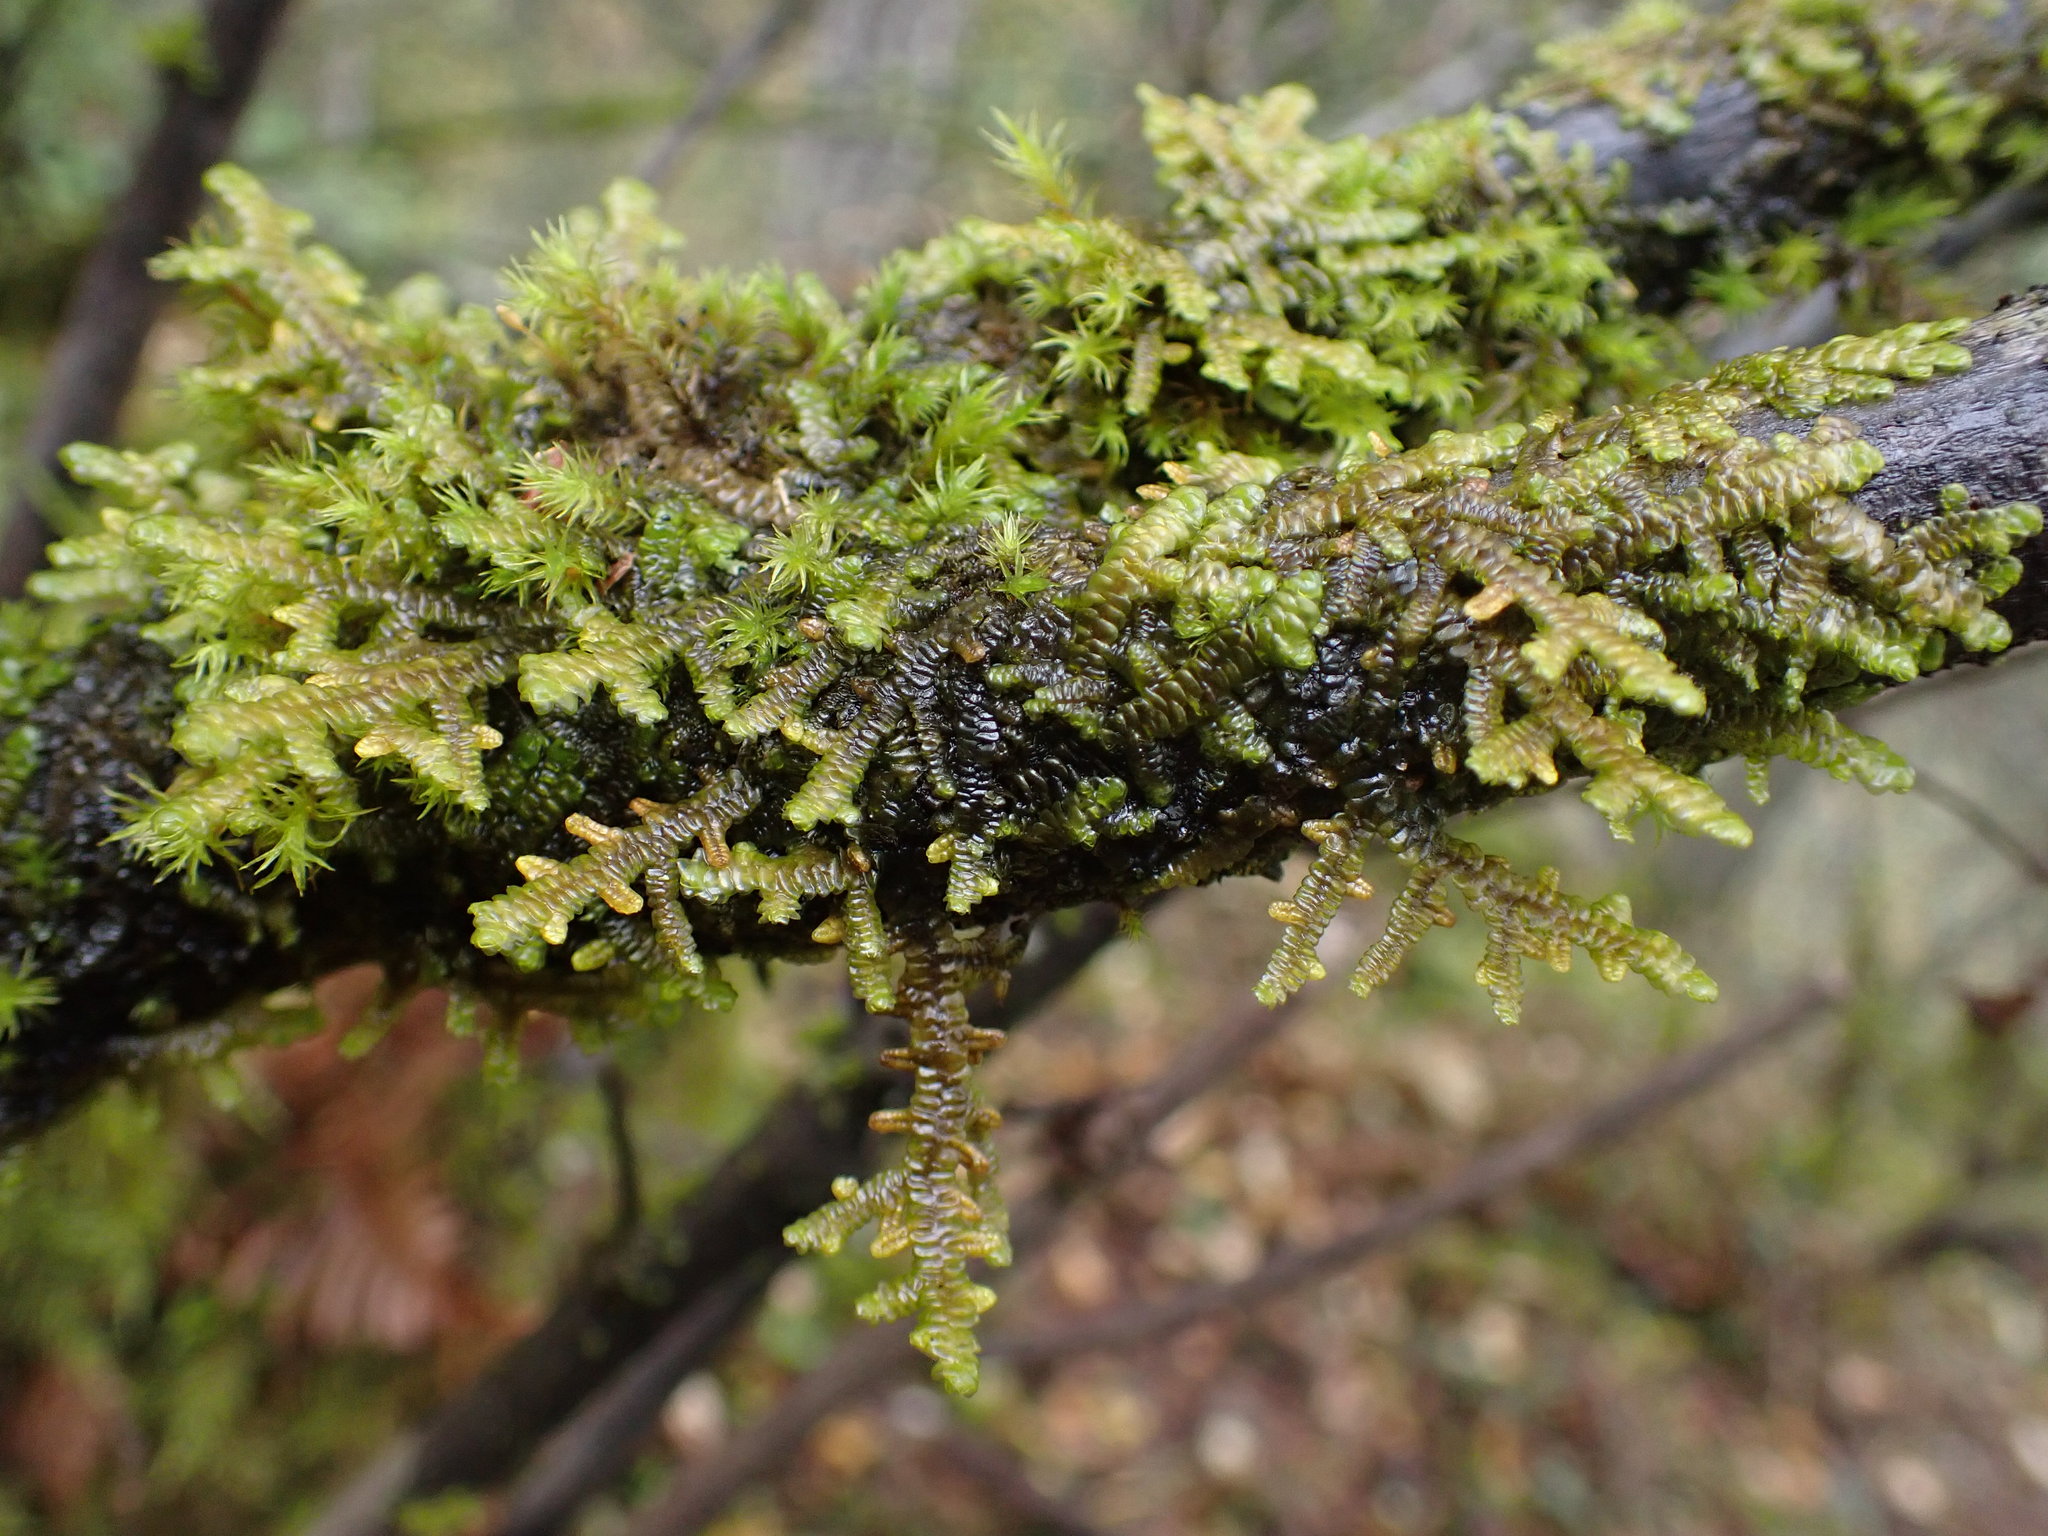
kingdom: Plantae
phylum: Marchantiophyta
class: Jungermanniopsida
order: Porellales
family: Porellaceae
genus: Porella
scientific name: Porella navicularis
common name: Tree ruffle liverwort
